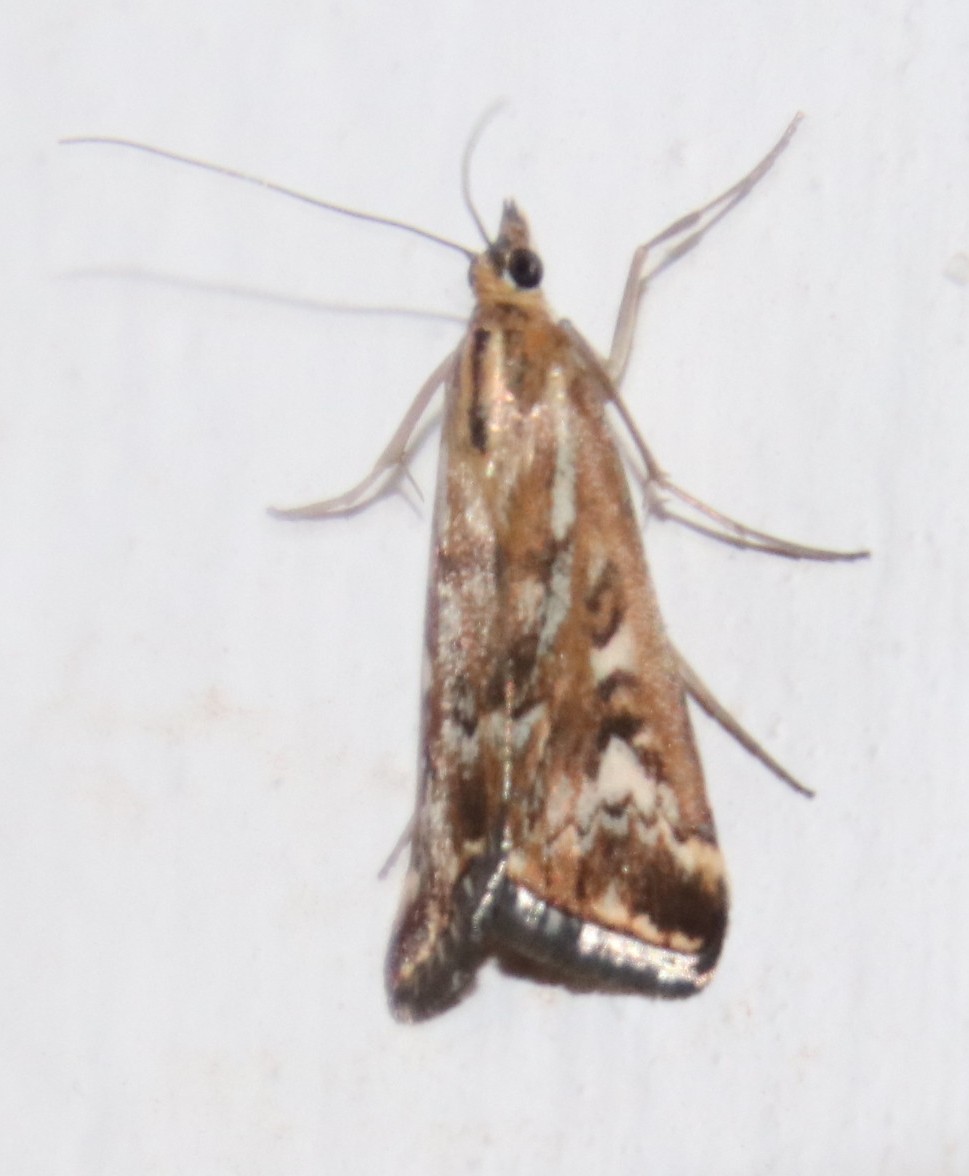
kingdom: Animalia
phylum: Arthropoda
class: Insecta
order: Lepidoptera
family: Crambidae
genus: Loxostege
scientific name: Loxostege frustalis
